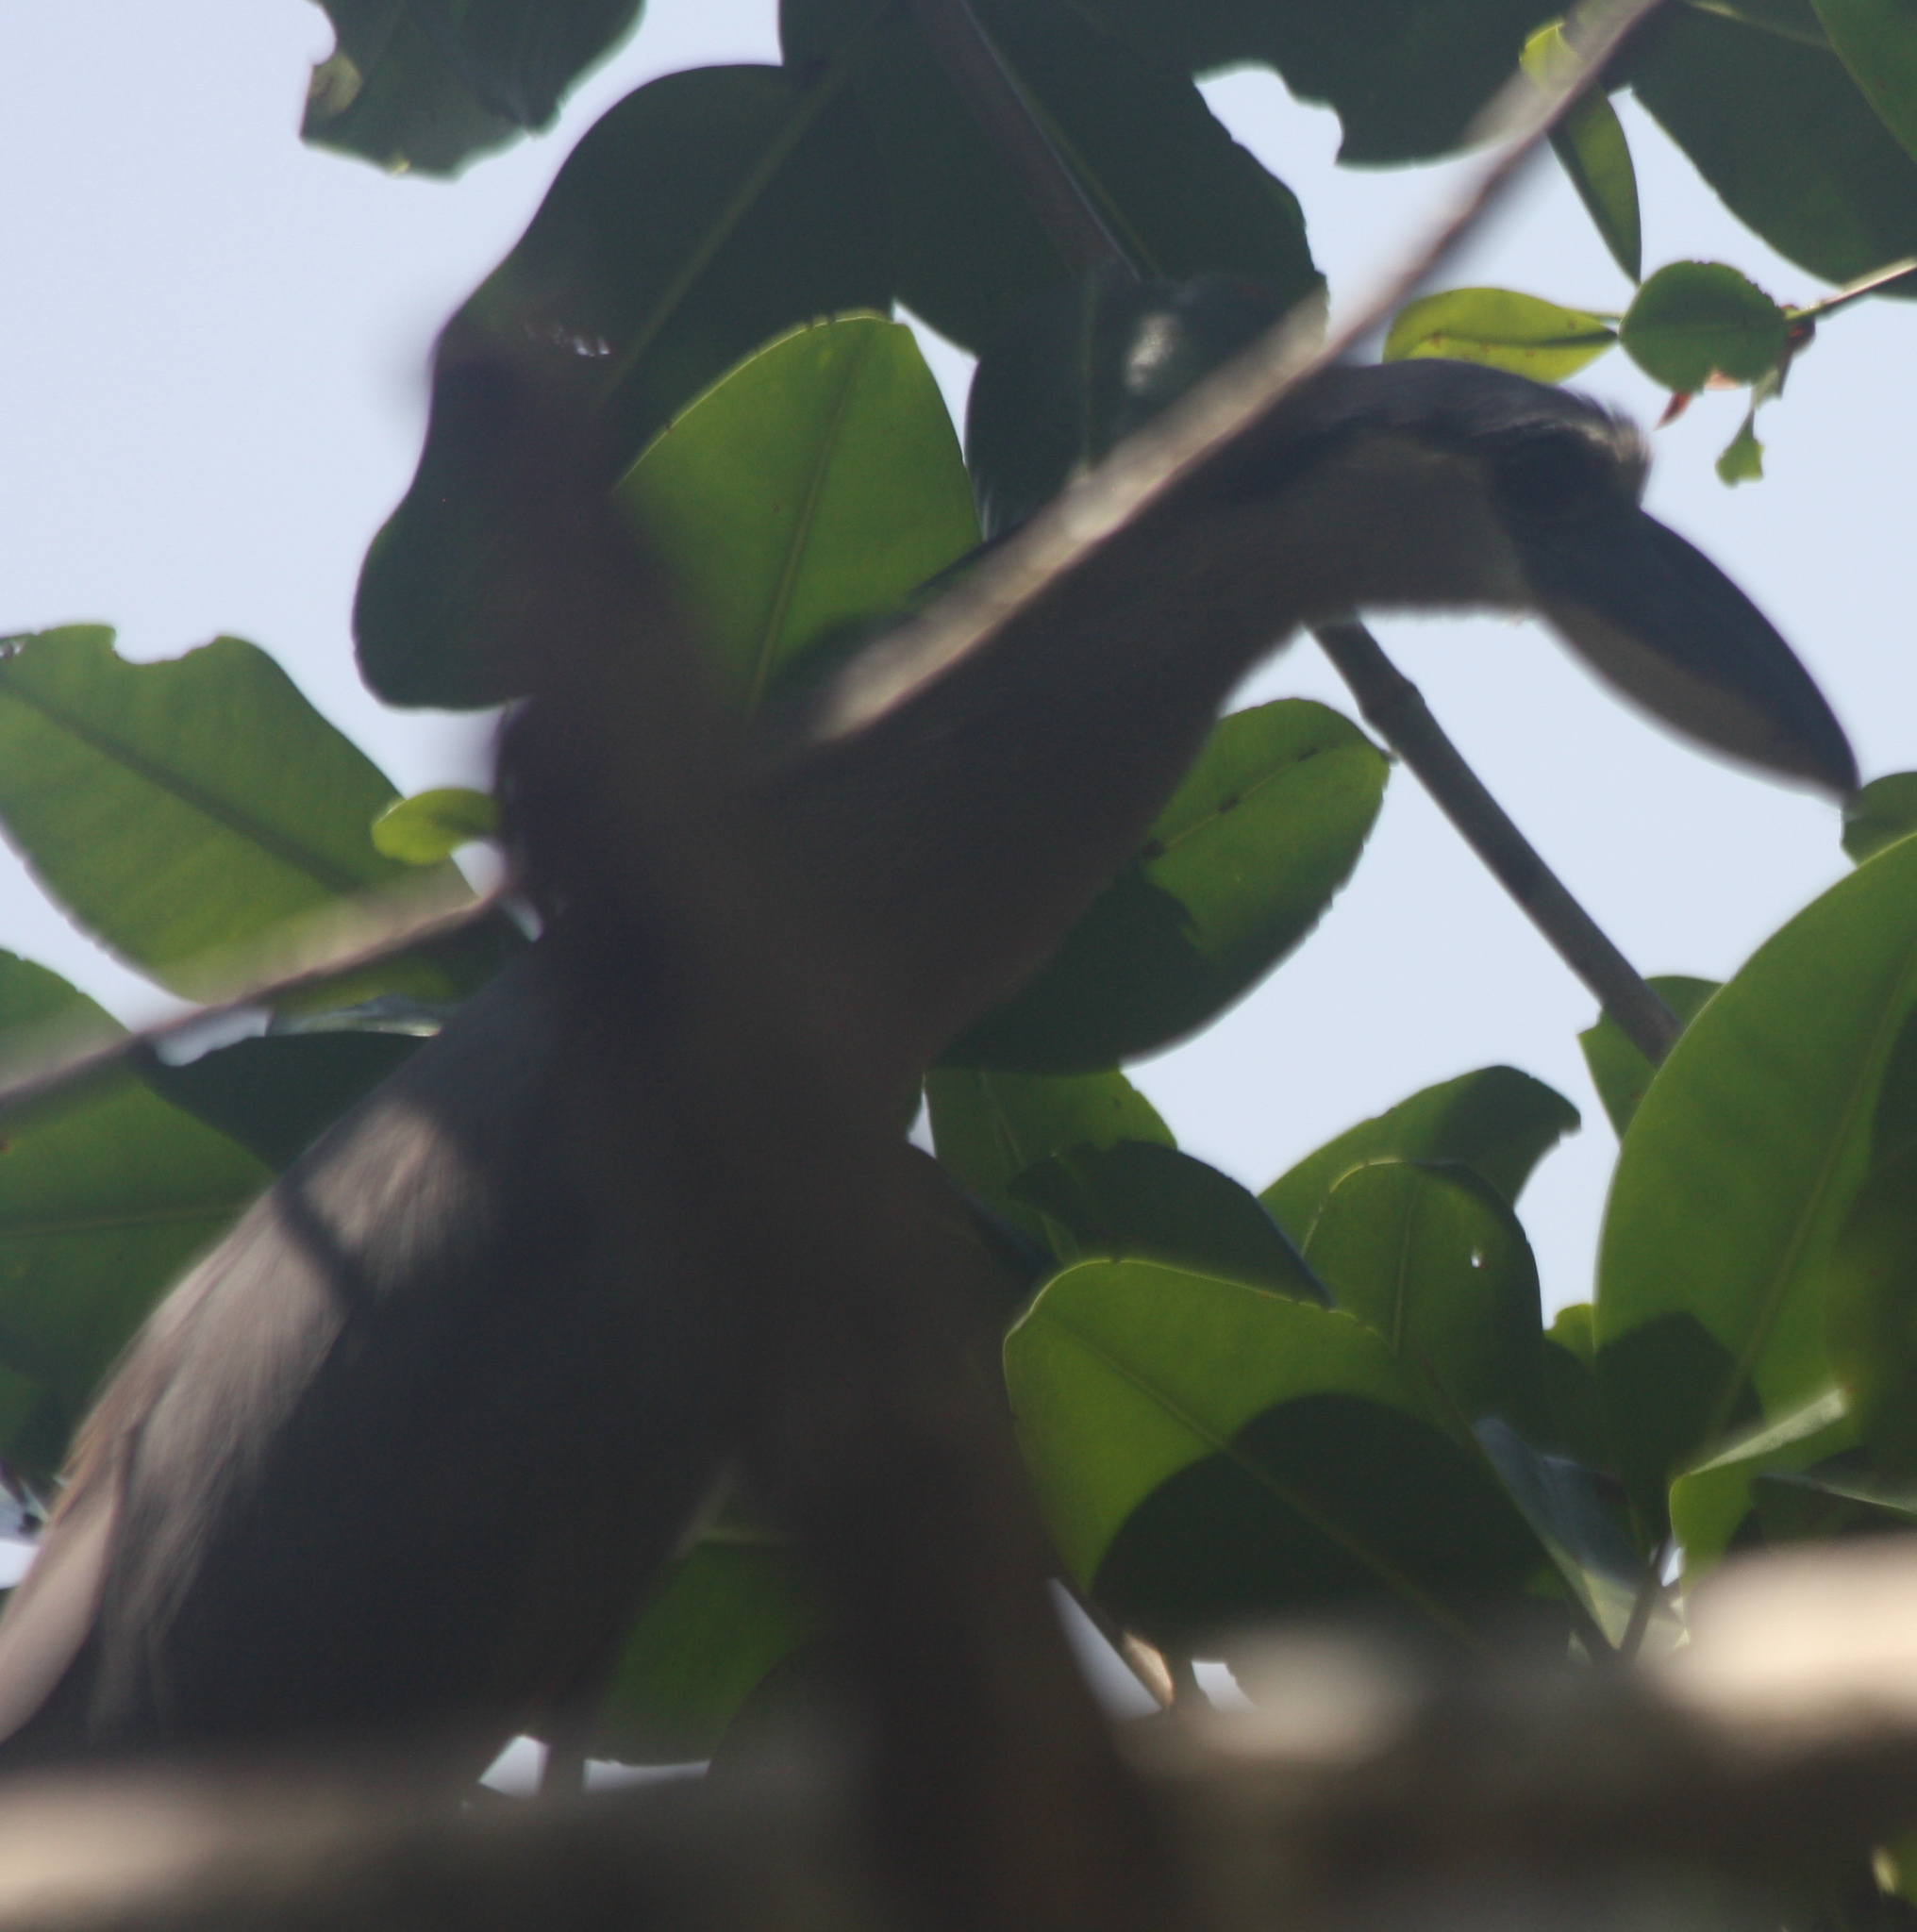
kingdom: Animalia
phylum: Chordata
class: Aves
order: Pelecaniformes
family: Ardeidae
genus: Cochlearius
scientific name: Cochlearius cochlearius
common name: Boat-billed heron
